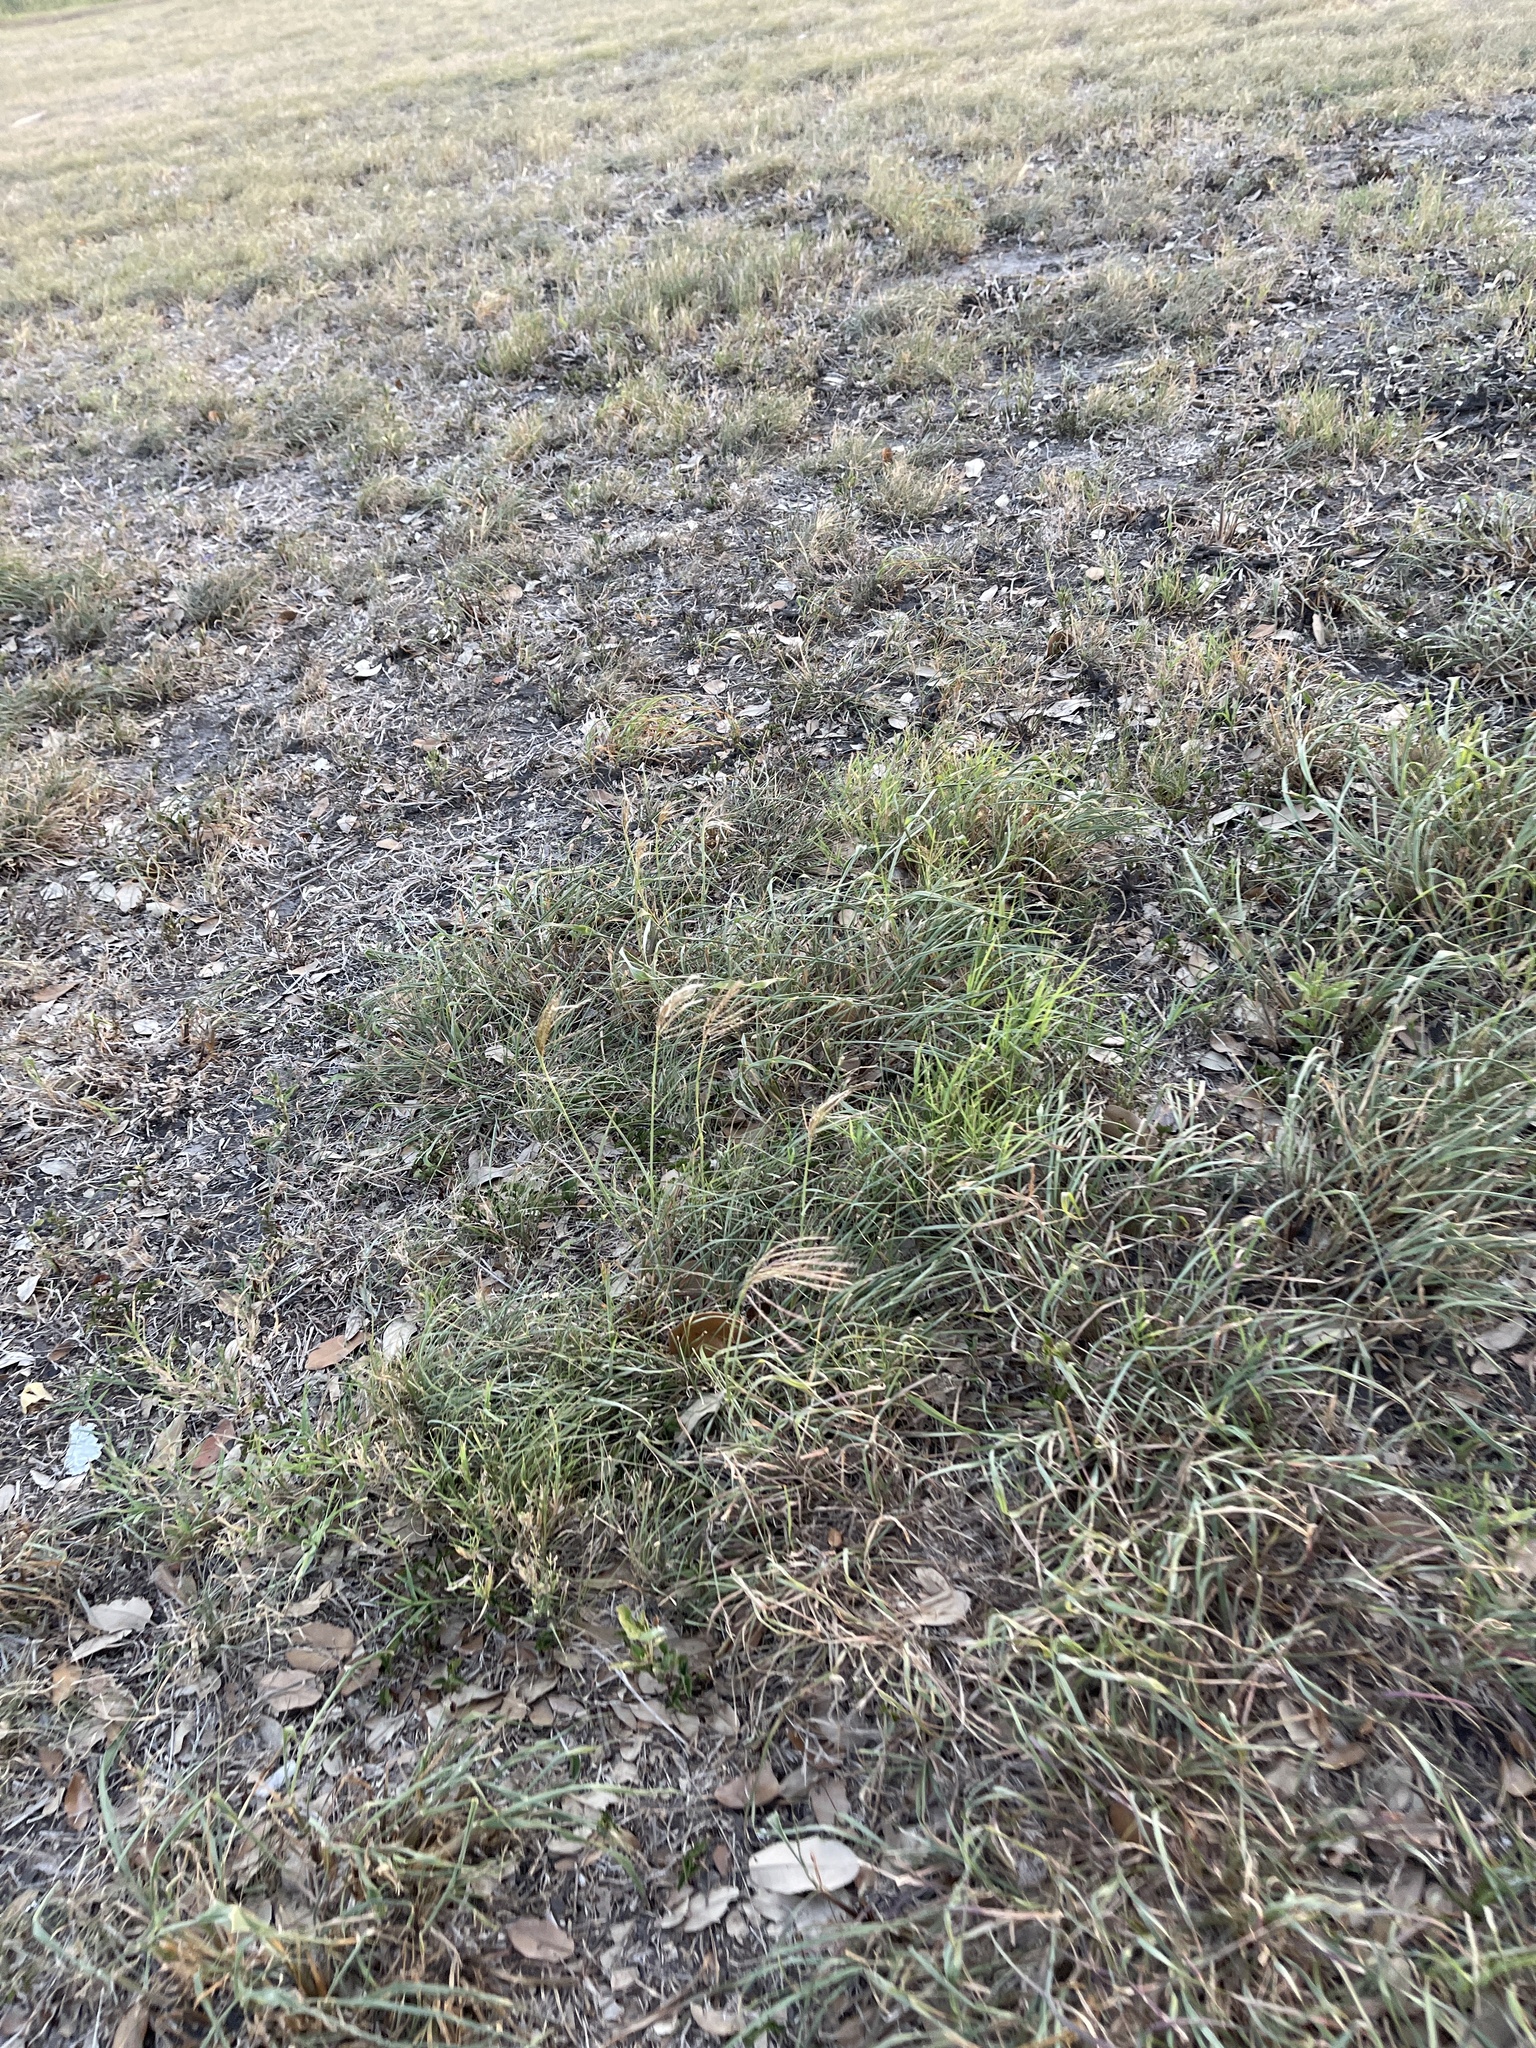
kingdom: Plantae
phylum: Tracheophyta
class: Liliopsida
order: Poales
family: Poaceae
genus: Bothriochloa
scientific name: Bothriochloa ischaemum
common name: Yellow bluestem
